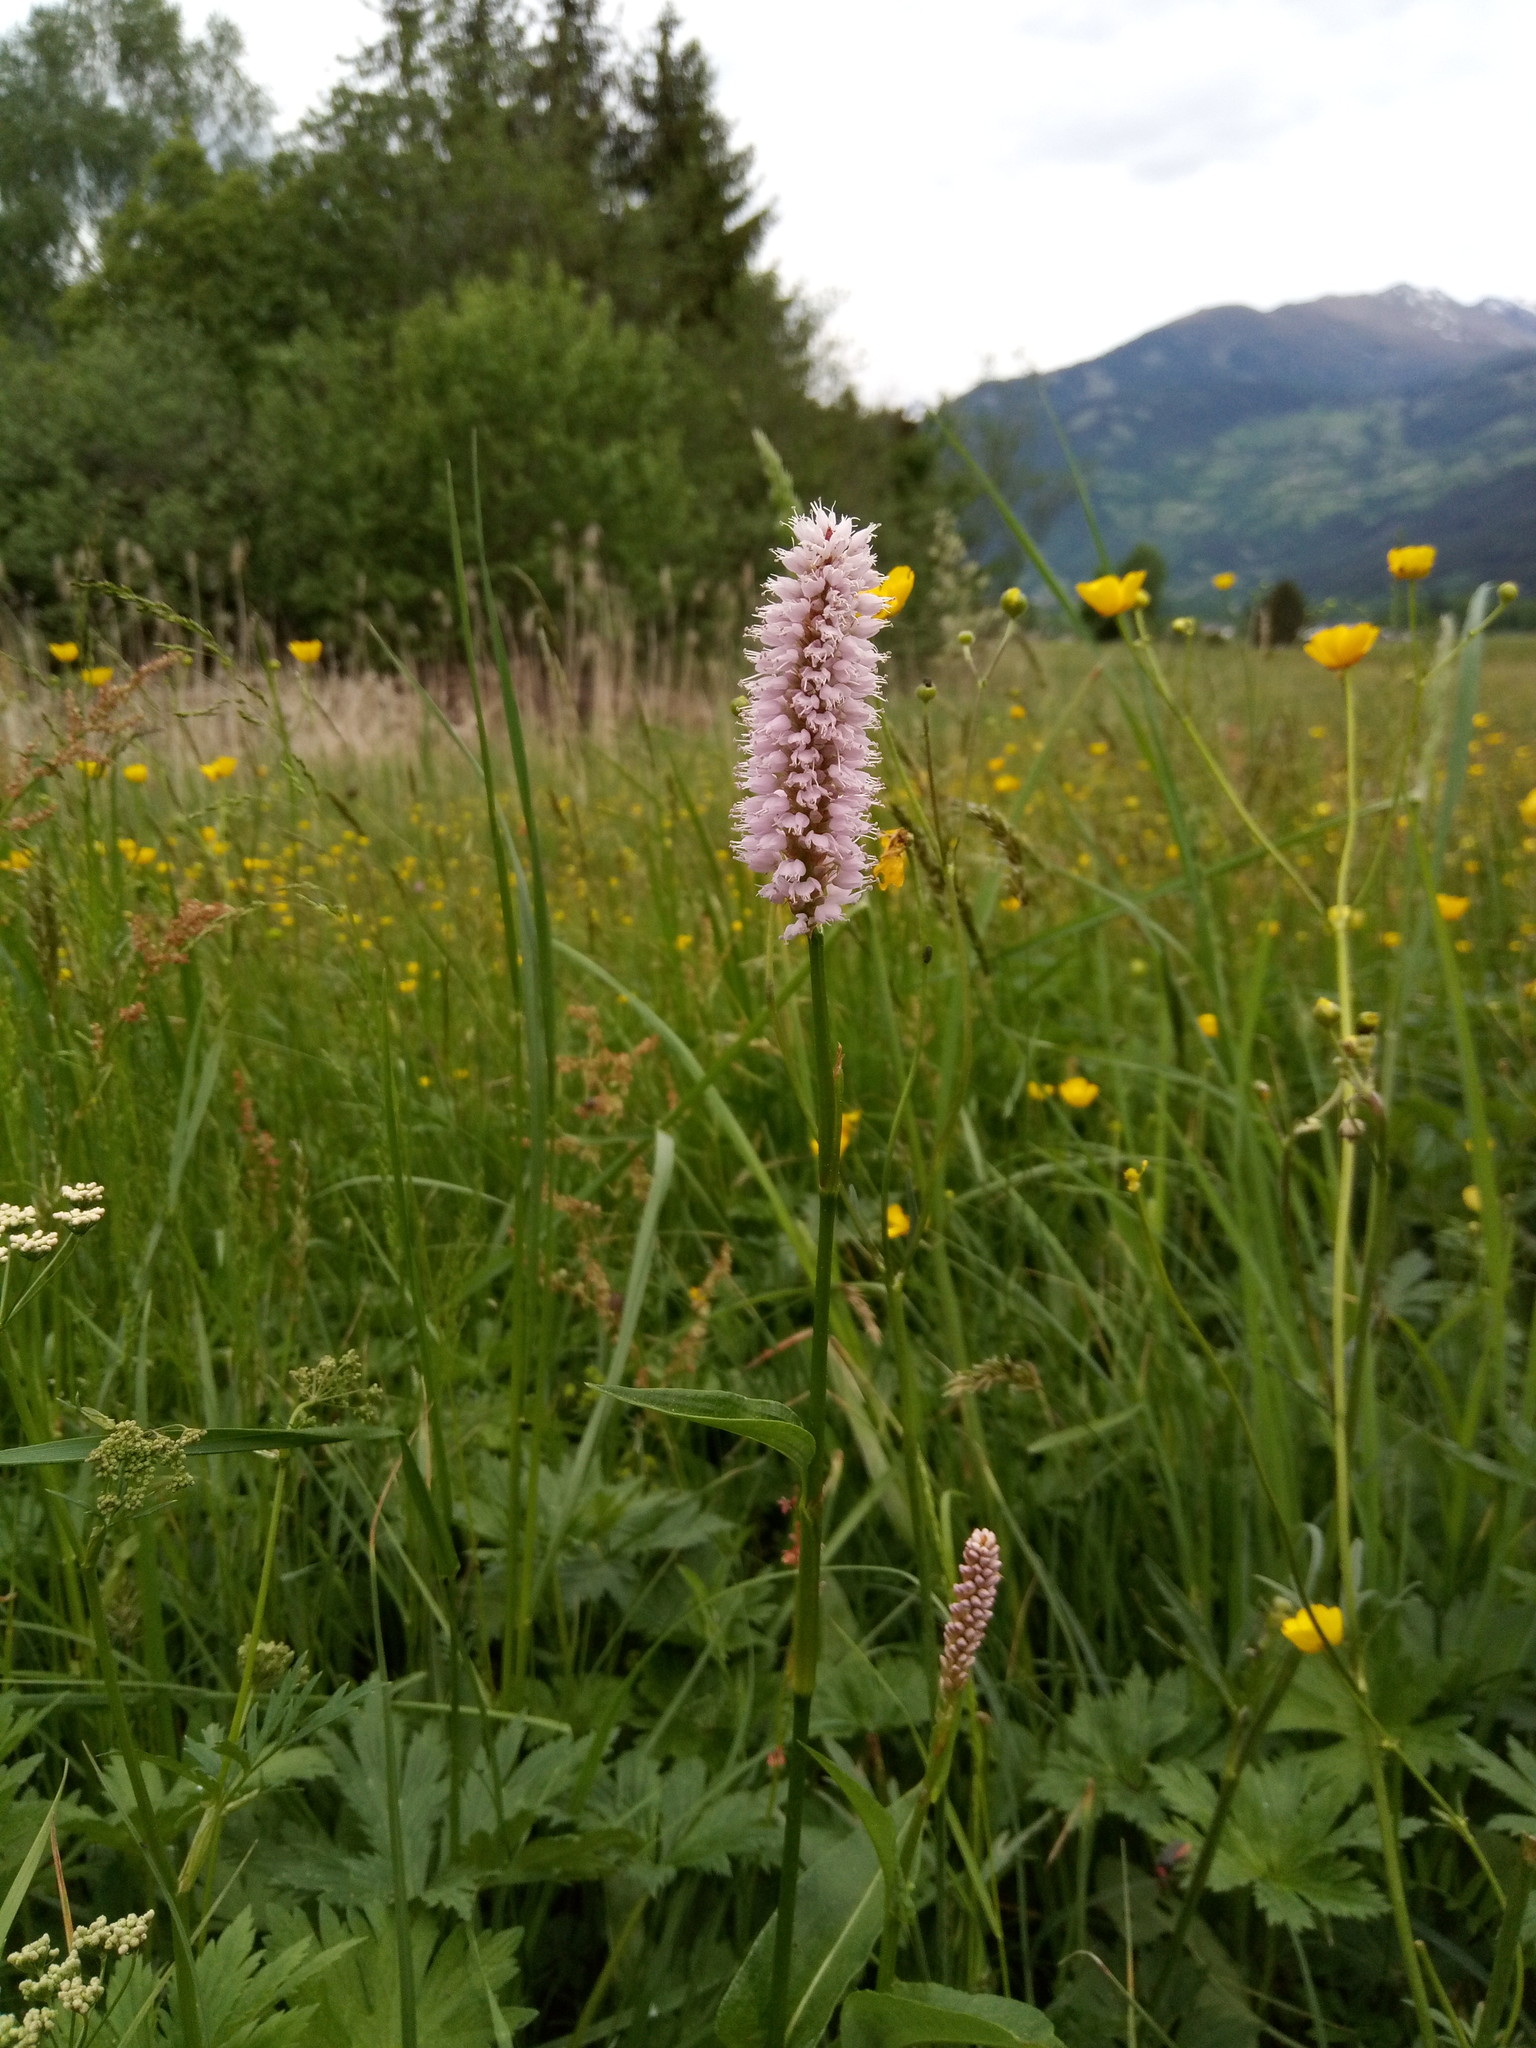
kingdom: Plantae
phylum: Tracheophyta
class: Magnoliopsida
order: Caryophyllales
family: Polygonaceae
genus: Bistorta
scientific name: Bistorta officinalis
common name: Common bistort
